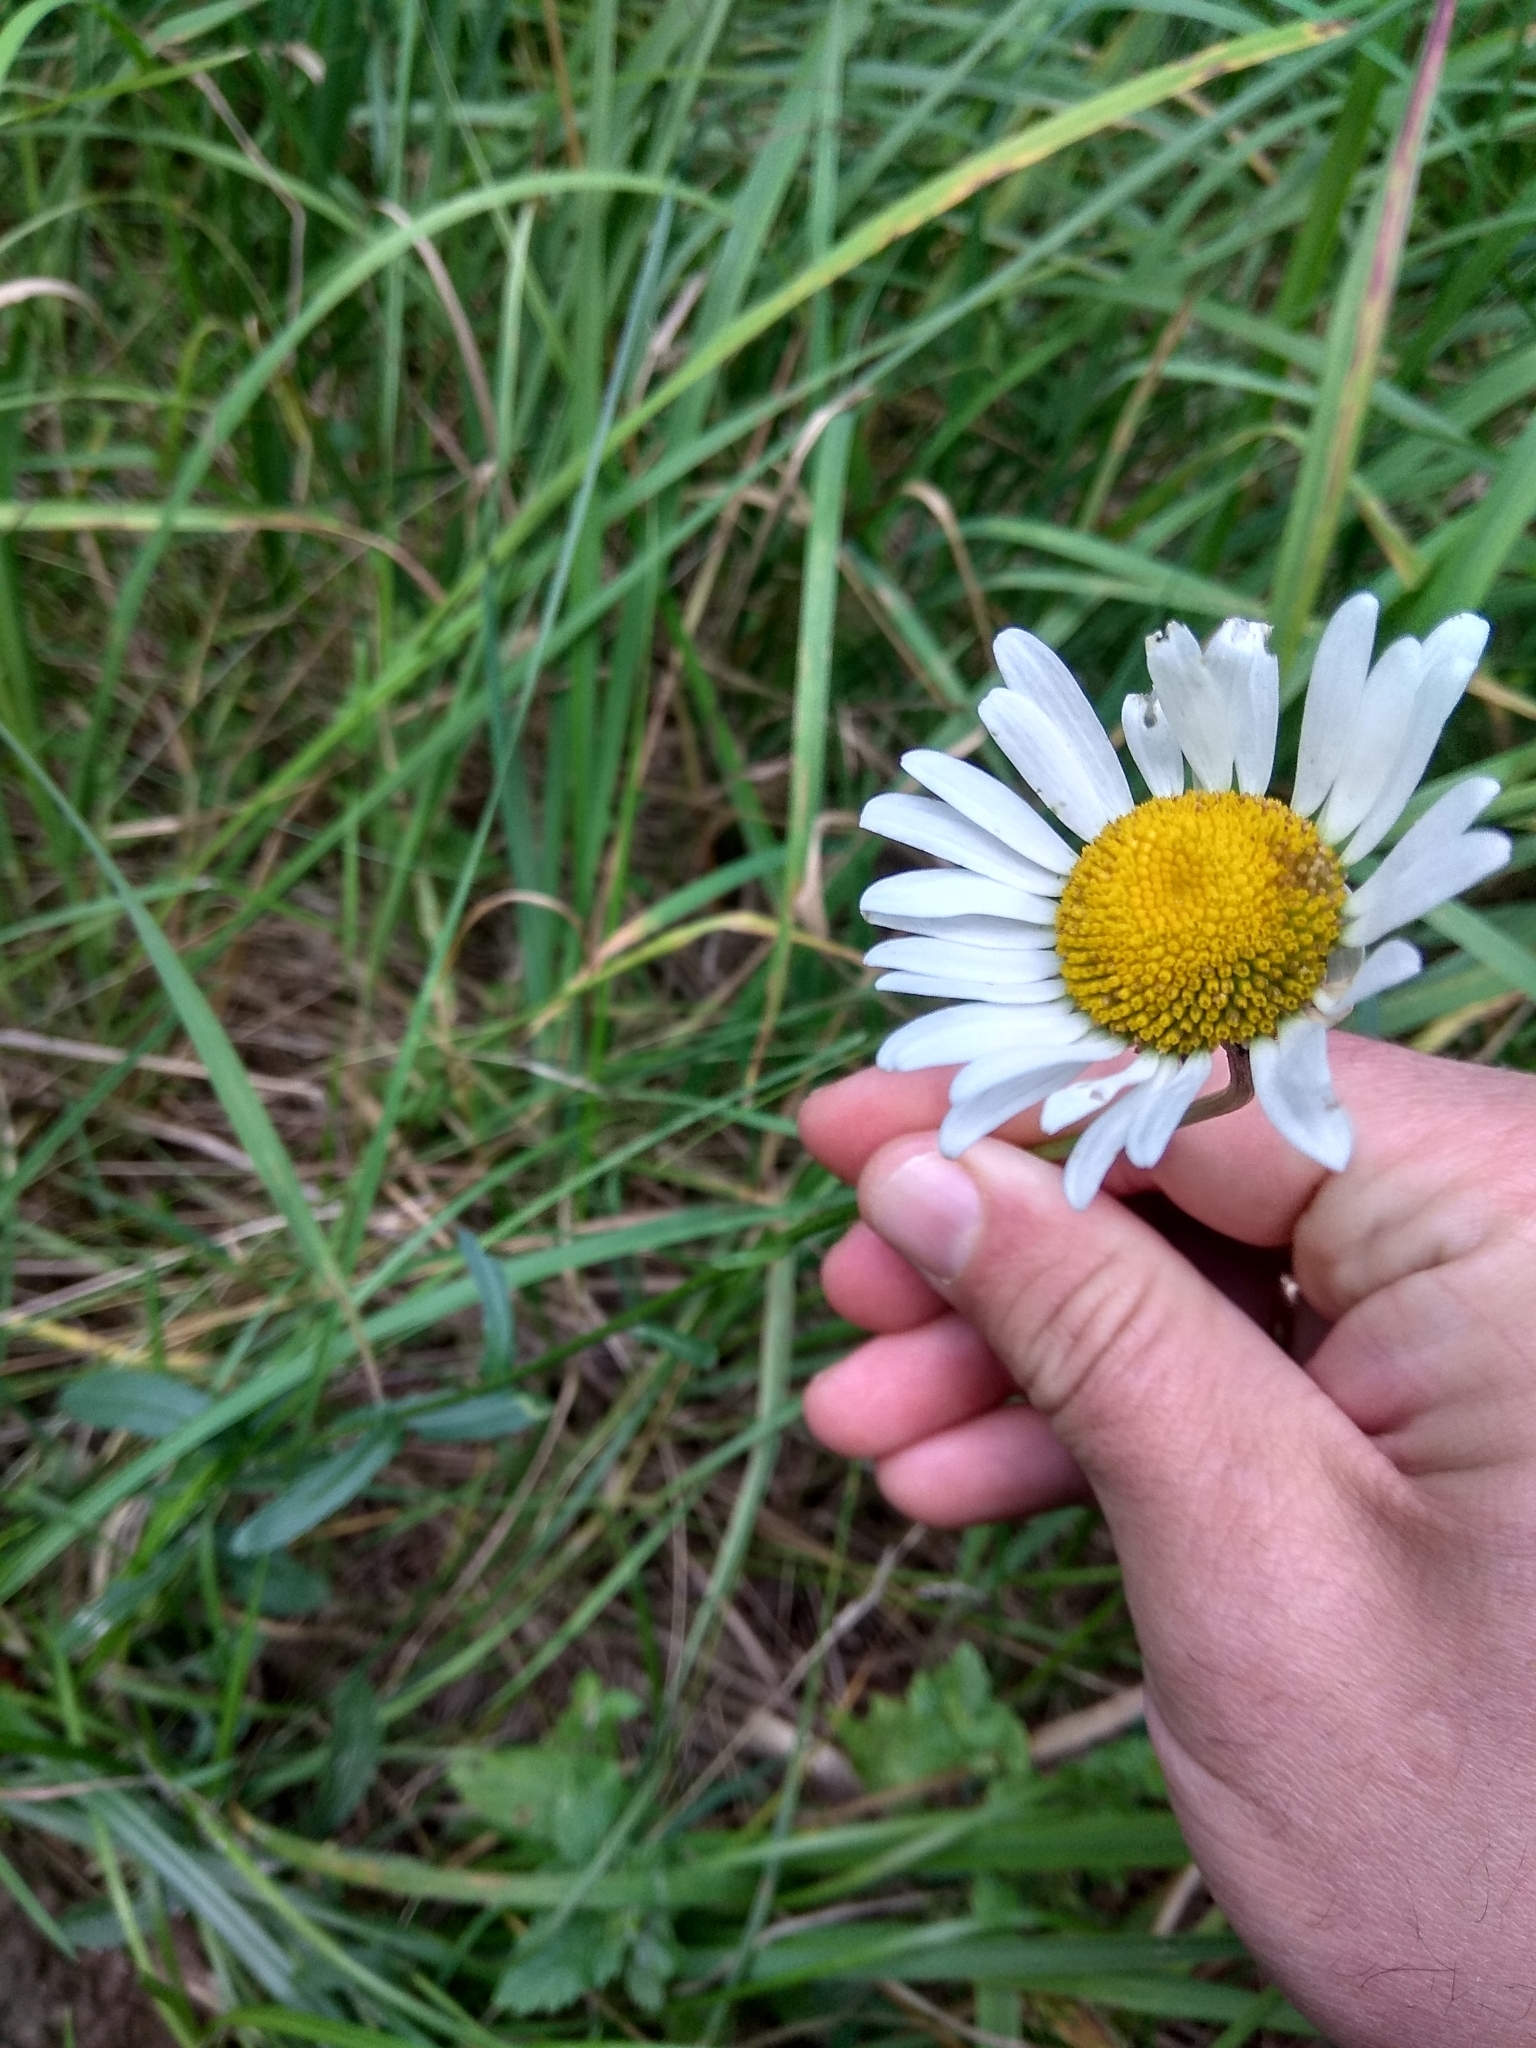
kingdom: Plantae
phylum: Tracheophyta
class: Magnoliopsida
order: Asterales
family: Asteraceae
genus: Leucanthemum
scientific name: Leucanthemum vulgare
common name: Oxeye daisy
